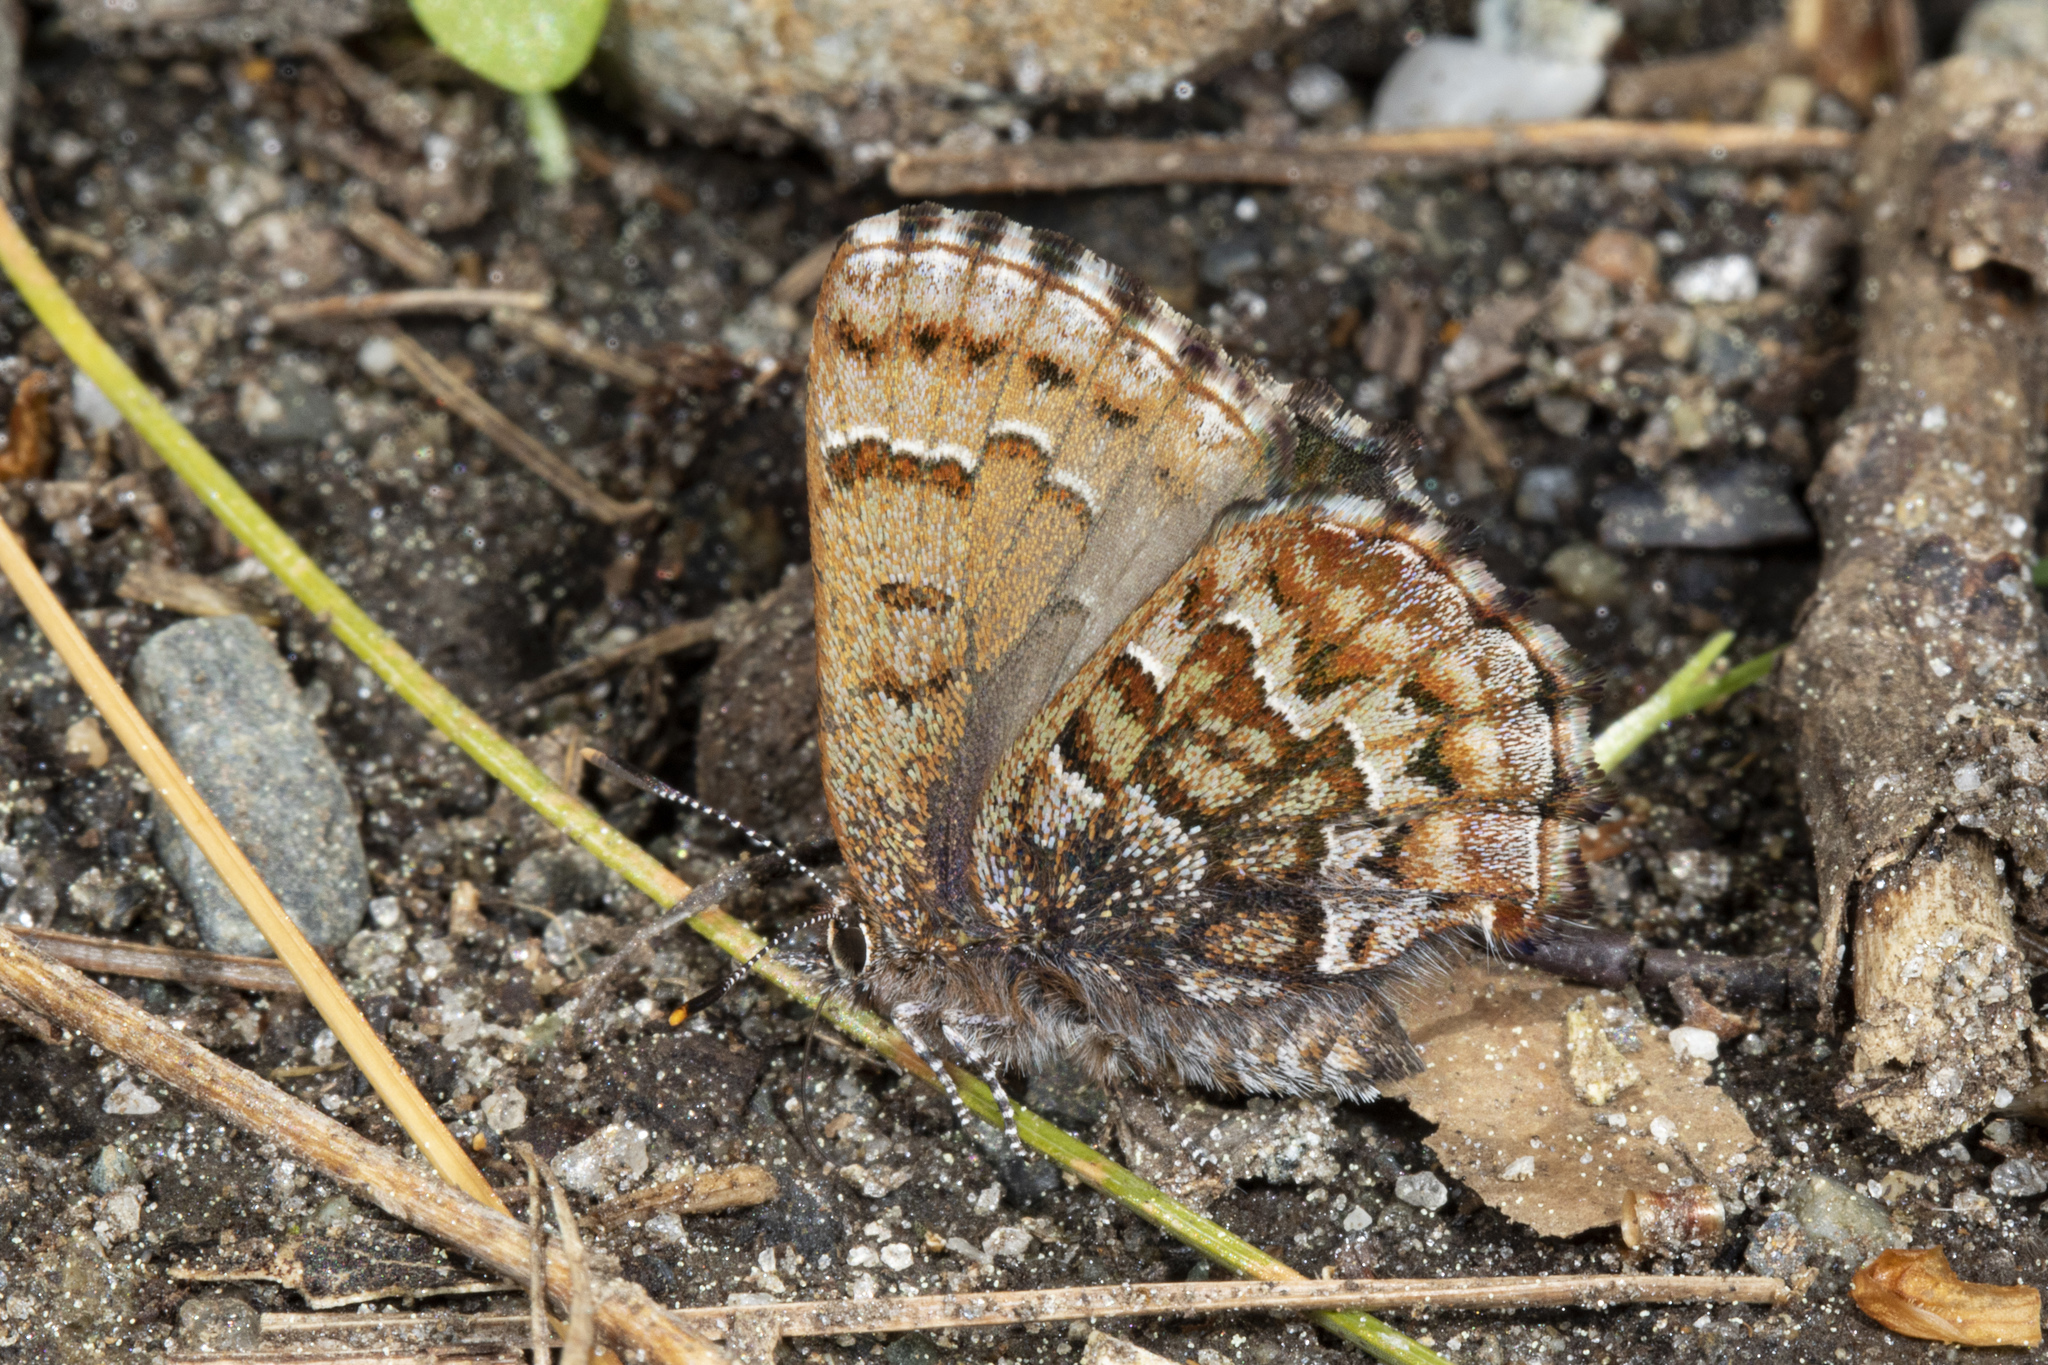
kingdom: Animalia
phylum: Arthropoda
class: Insecta
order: Lepidoptera
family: Lycaenidae
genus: Incisalia
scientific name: Incisalia niphon
